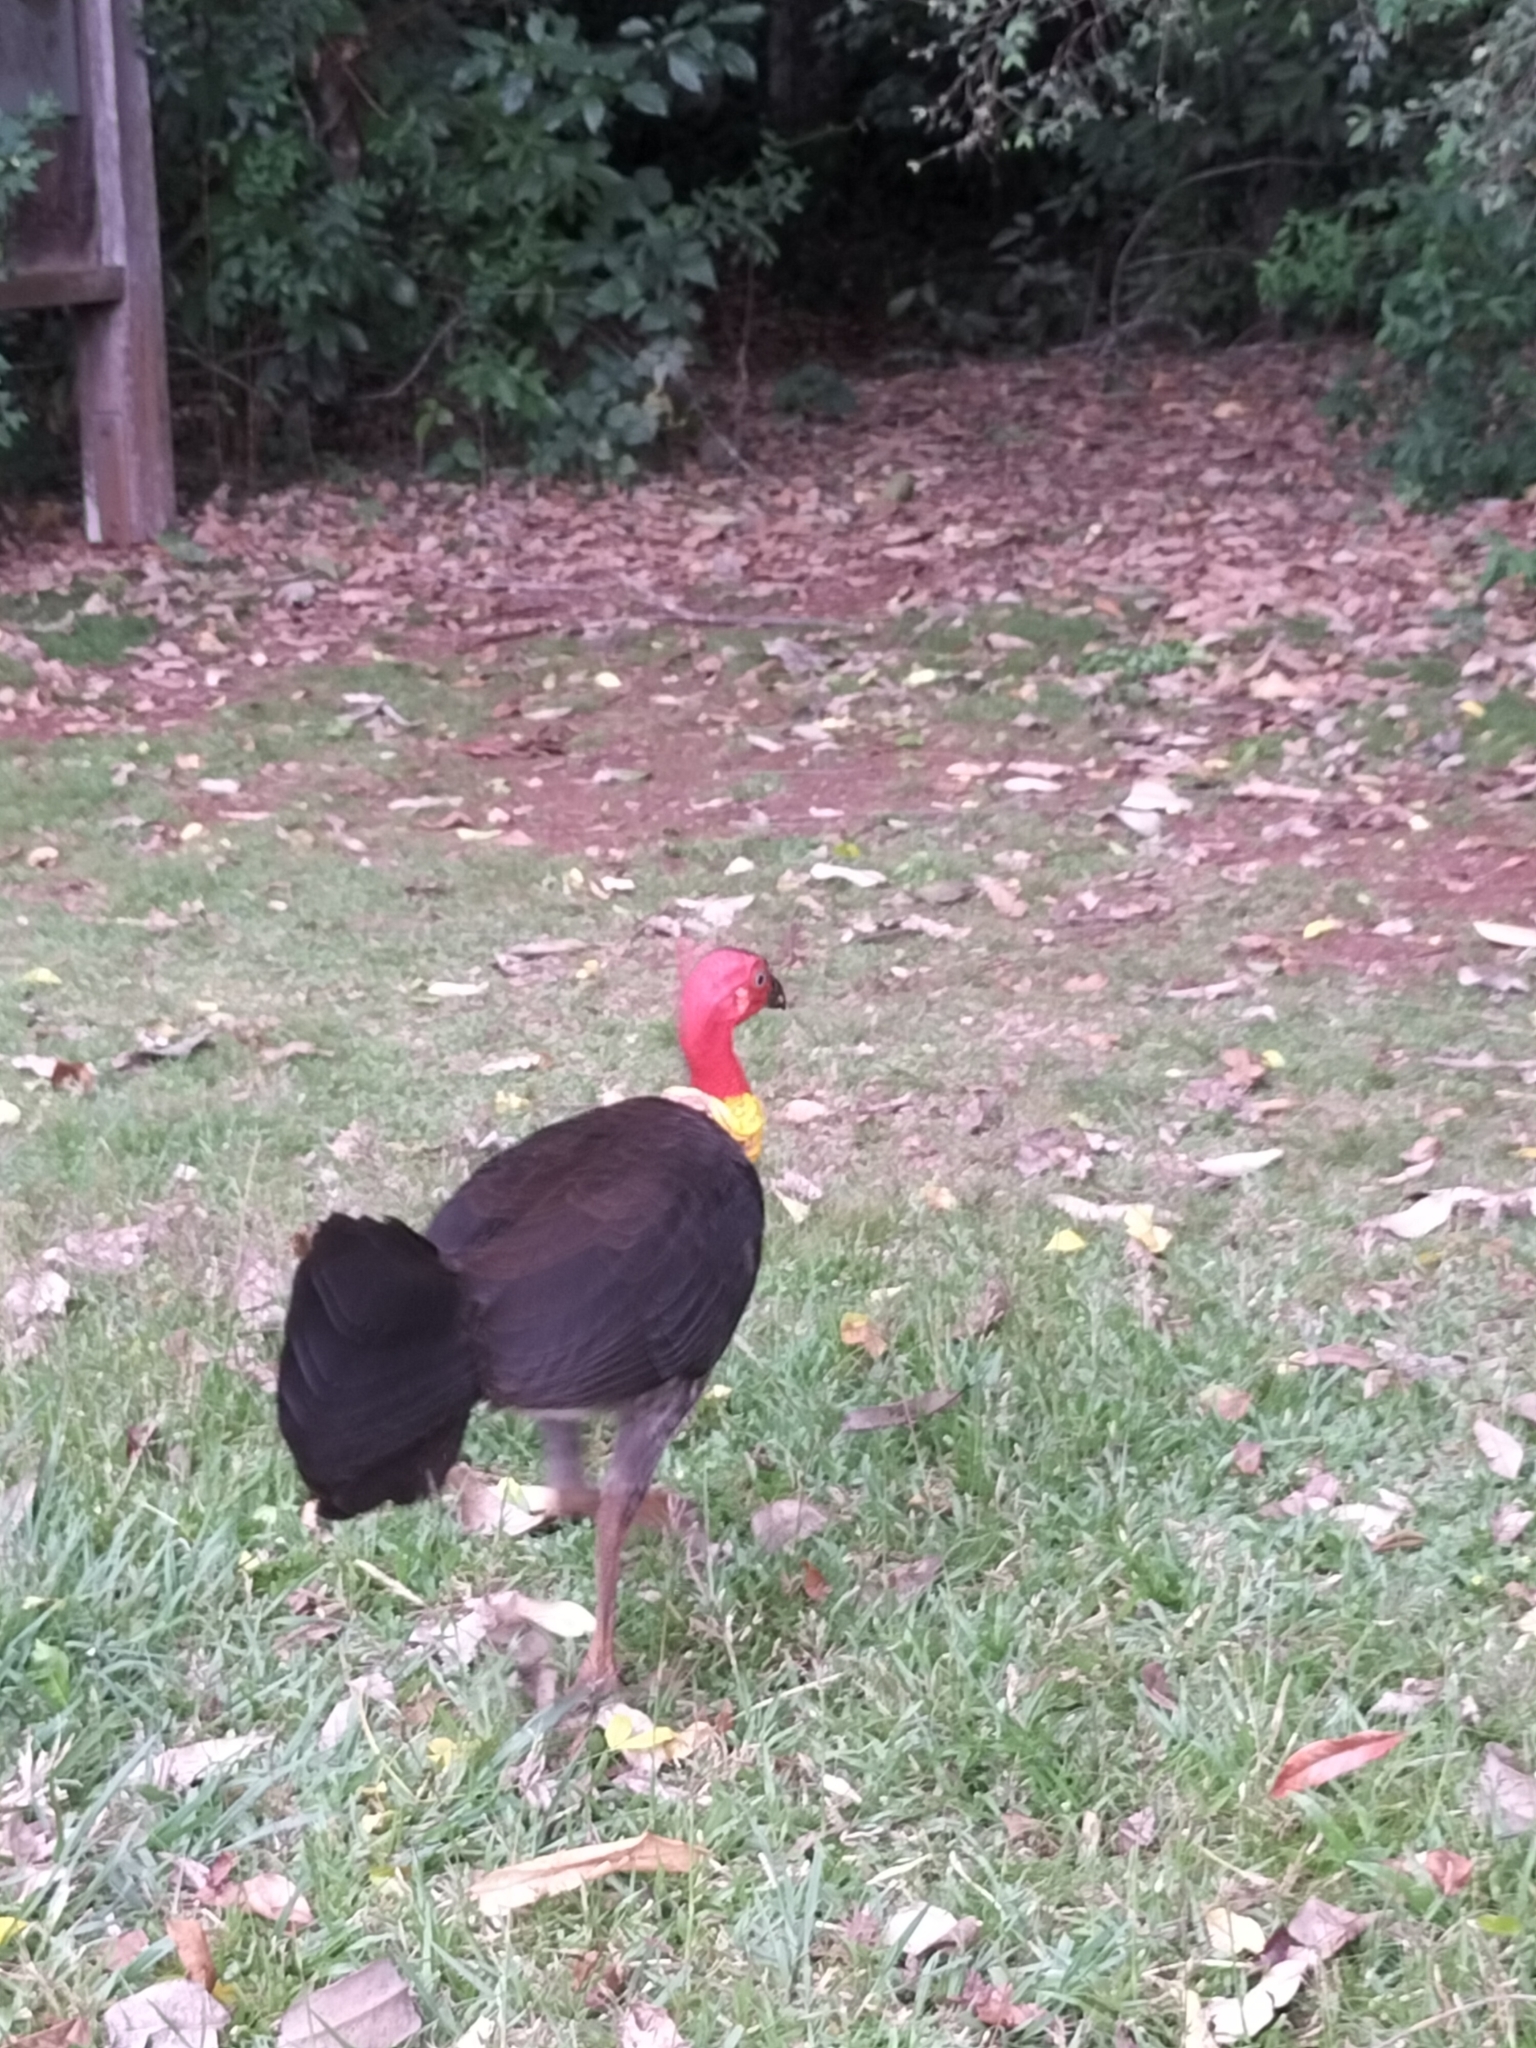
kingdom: Animalia
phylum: Chordata
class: Aves
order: Galliformes
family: Megapodiidae
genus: Alectura
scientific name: Alectura lathami
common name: Australian brushturkey
